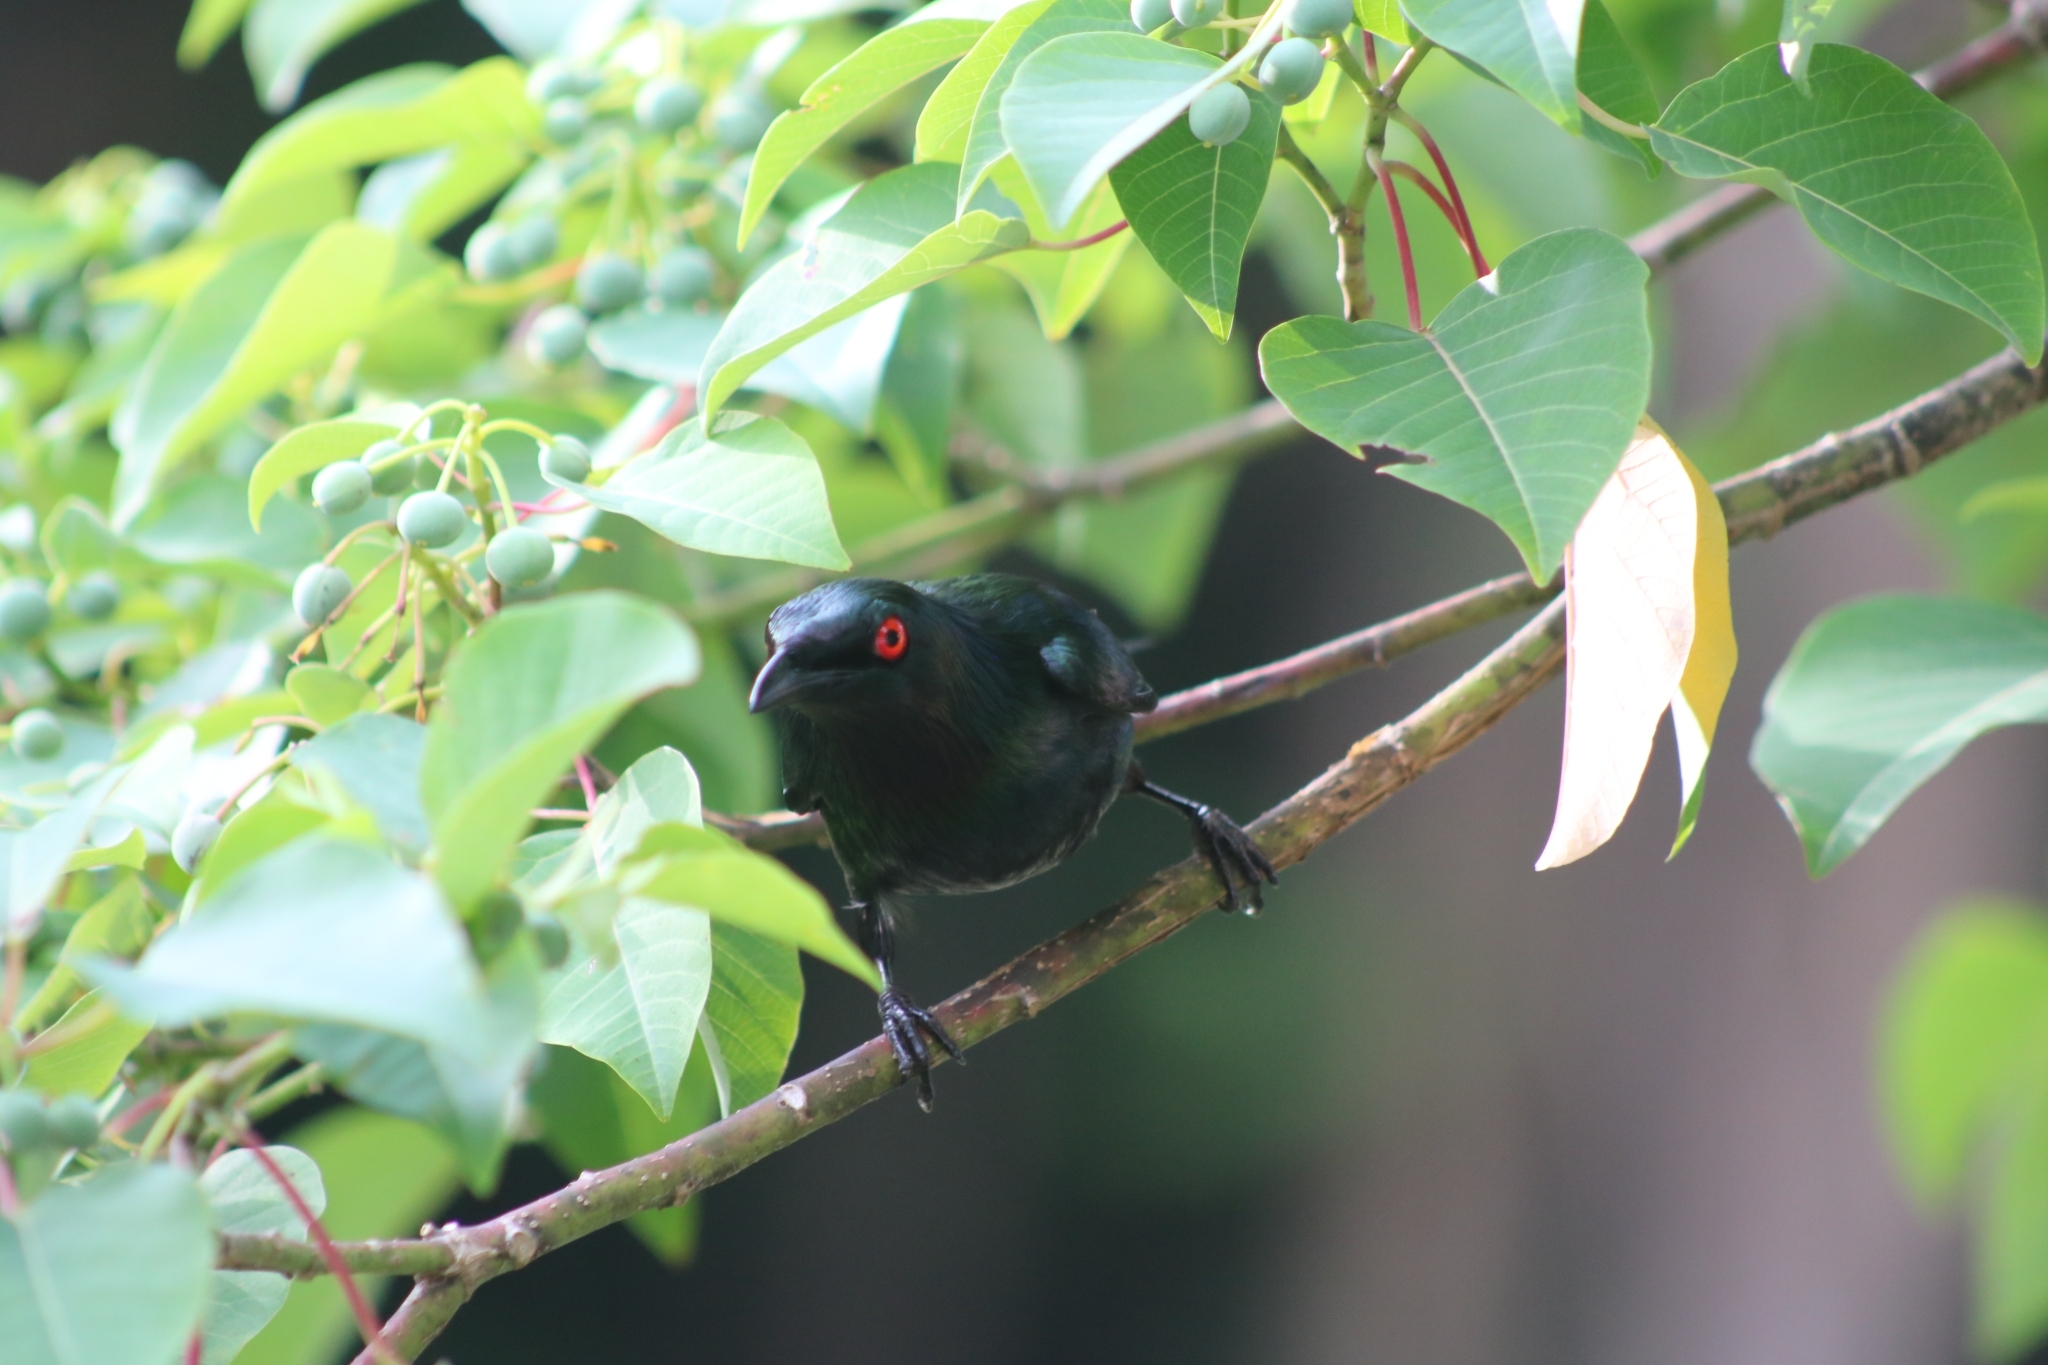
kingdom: Animalia
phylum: Chordata
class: Aves
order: Passeriformes
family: Sturnidae
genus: Aplonis
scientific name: Aplonis metallica
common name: Metallic starling
